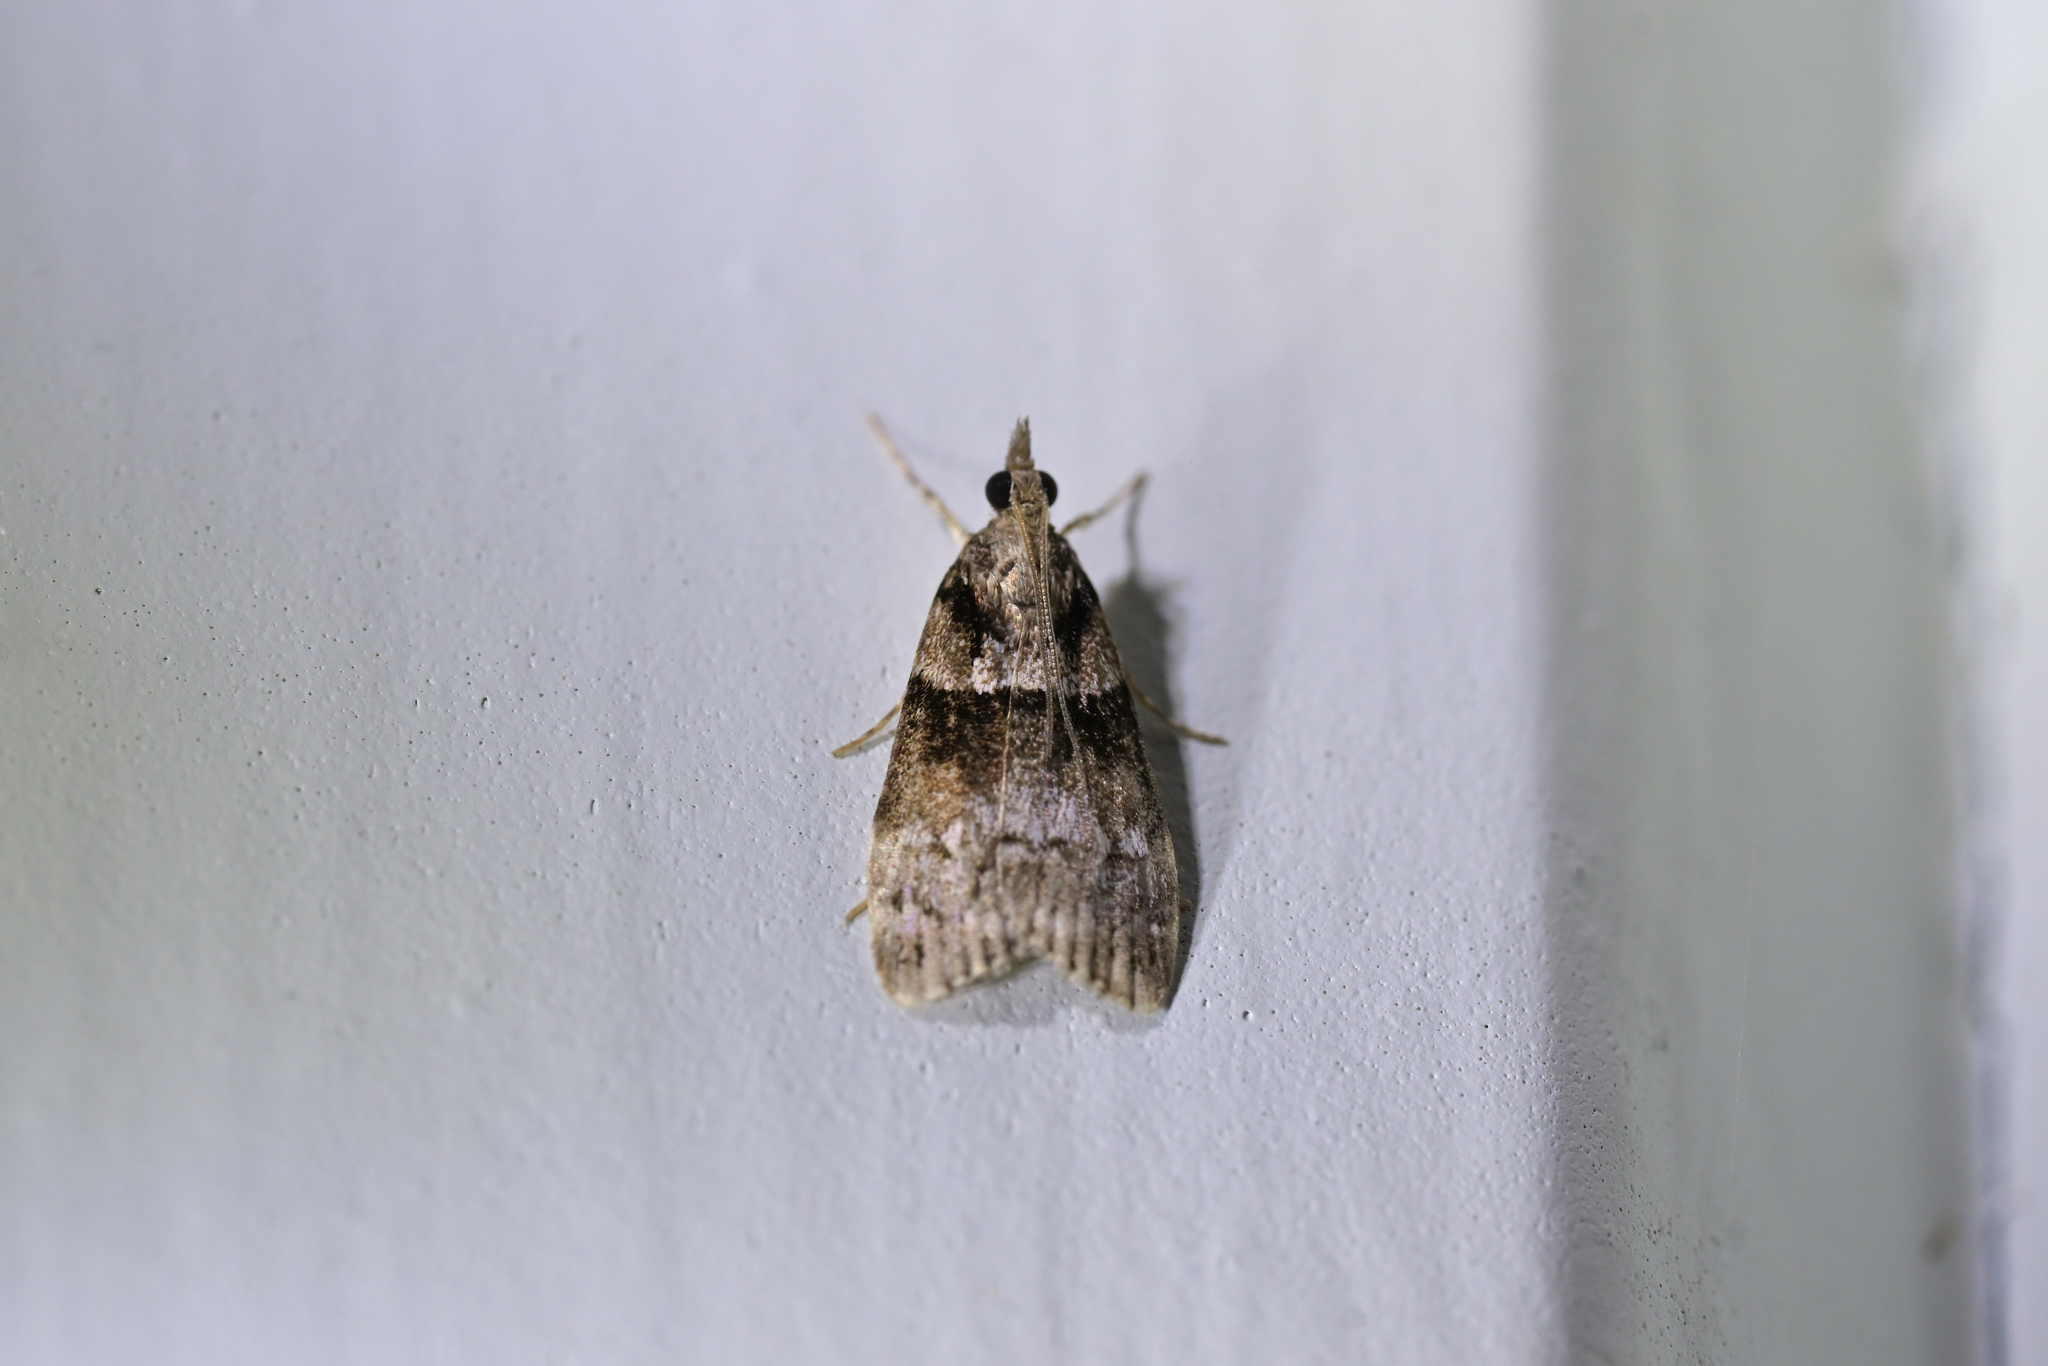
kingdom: Animalia
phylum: Arthropoda
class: Insecta
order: Lepidoptera
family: Crambidae
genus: Eudonia
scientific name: Eudonia colpota
